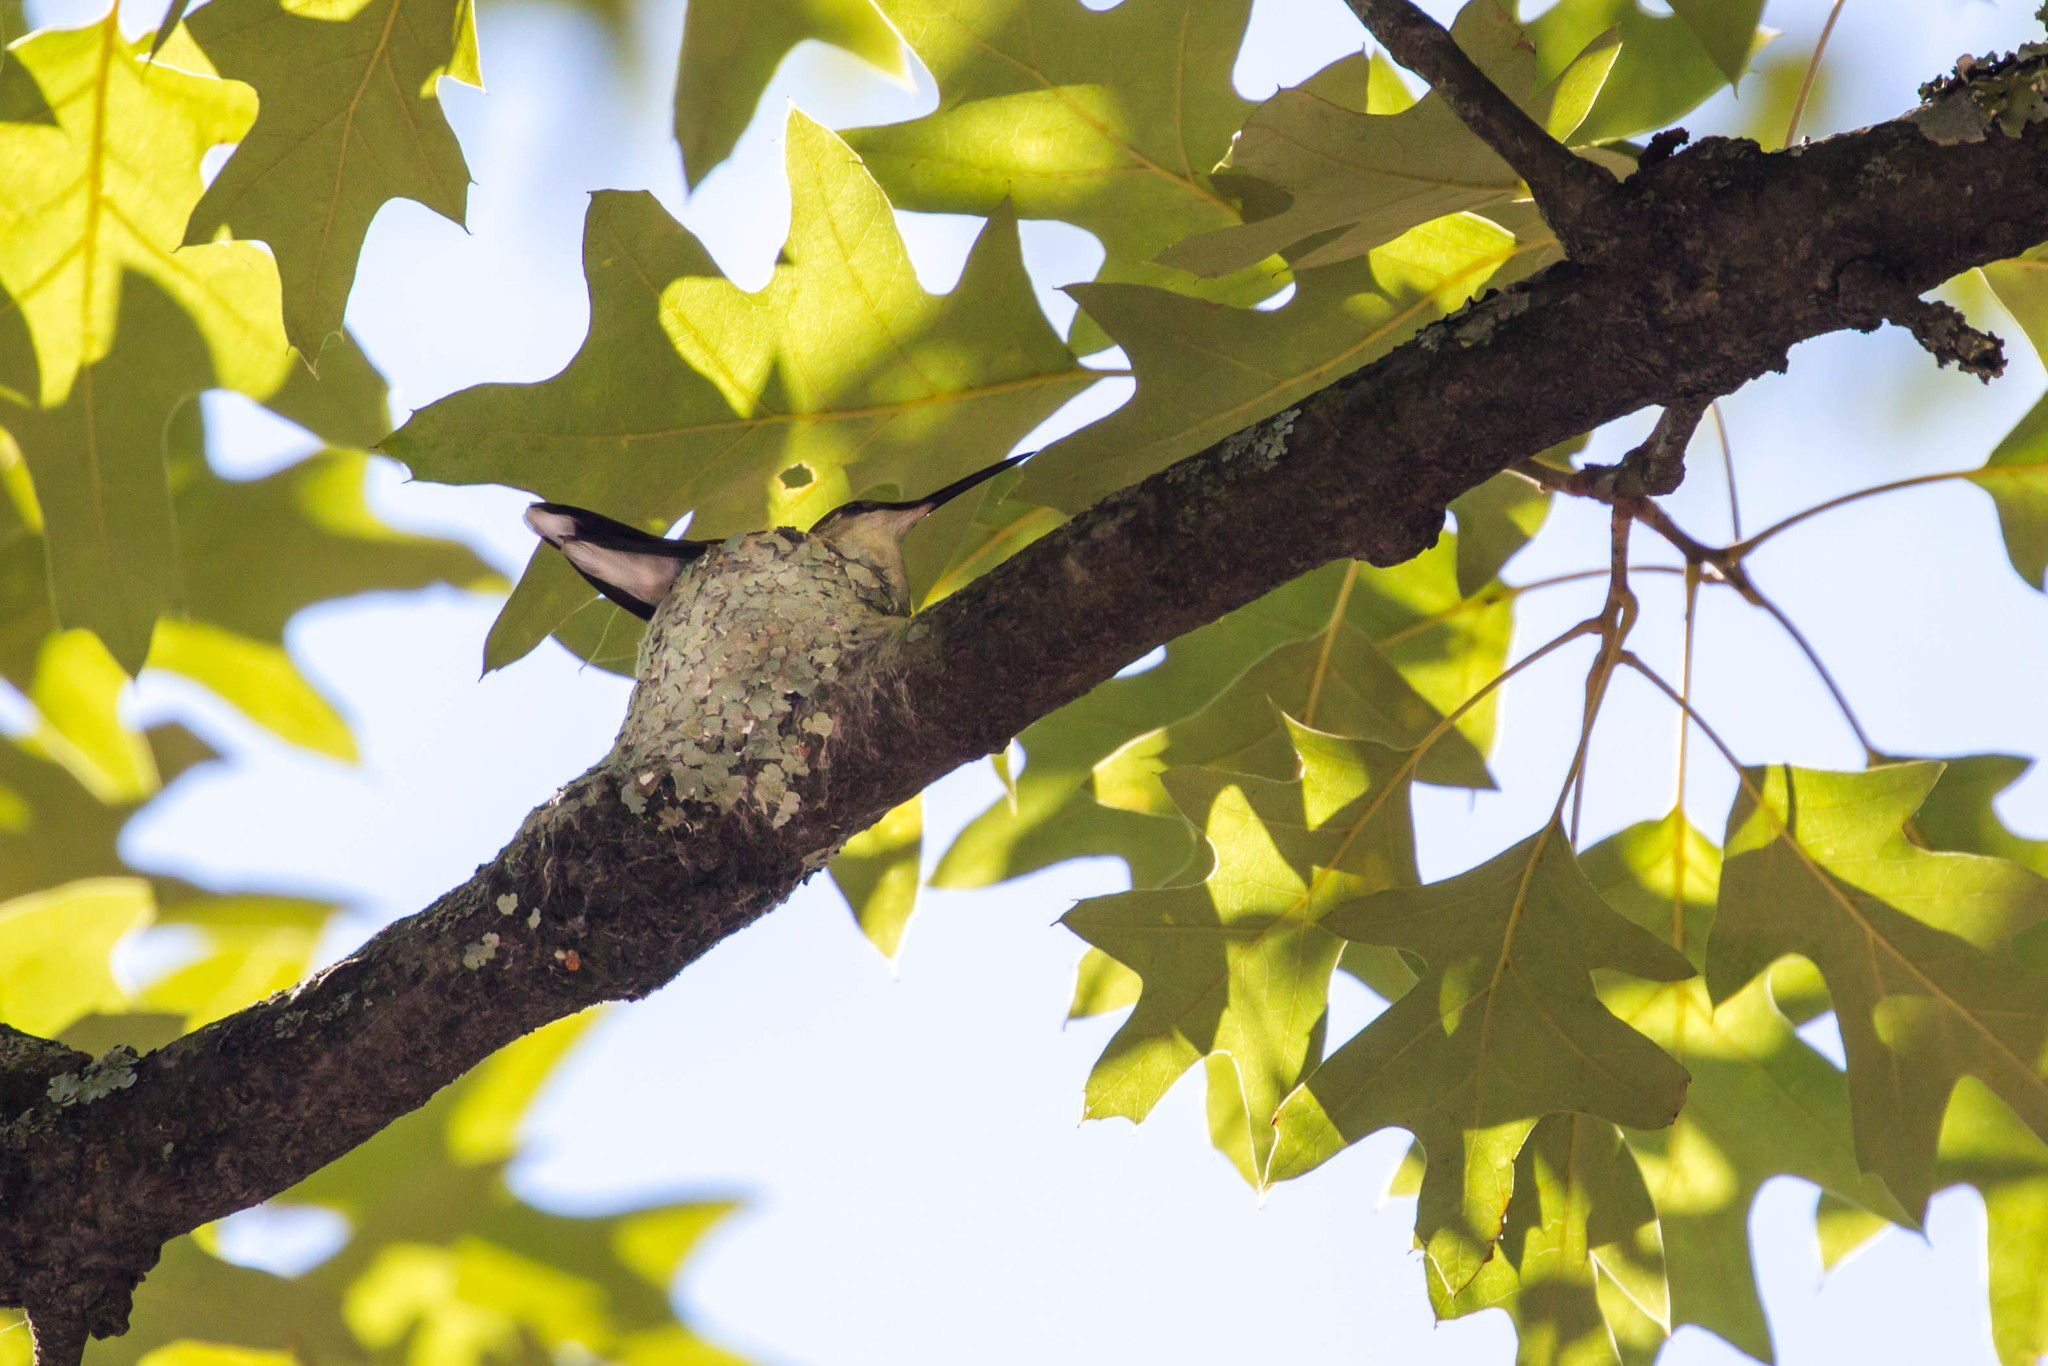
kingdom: Animalia
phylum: Chordata
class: Aves
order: Apodiformes
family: Trochilidae
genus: Archilochus
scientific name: Archilochus colubris
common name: Ruby-throated hummingbird
